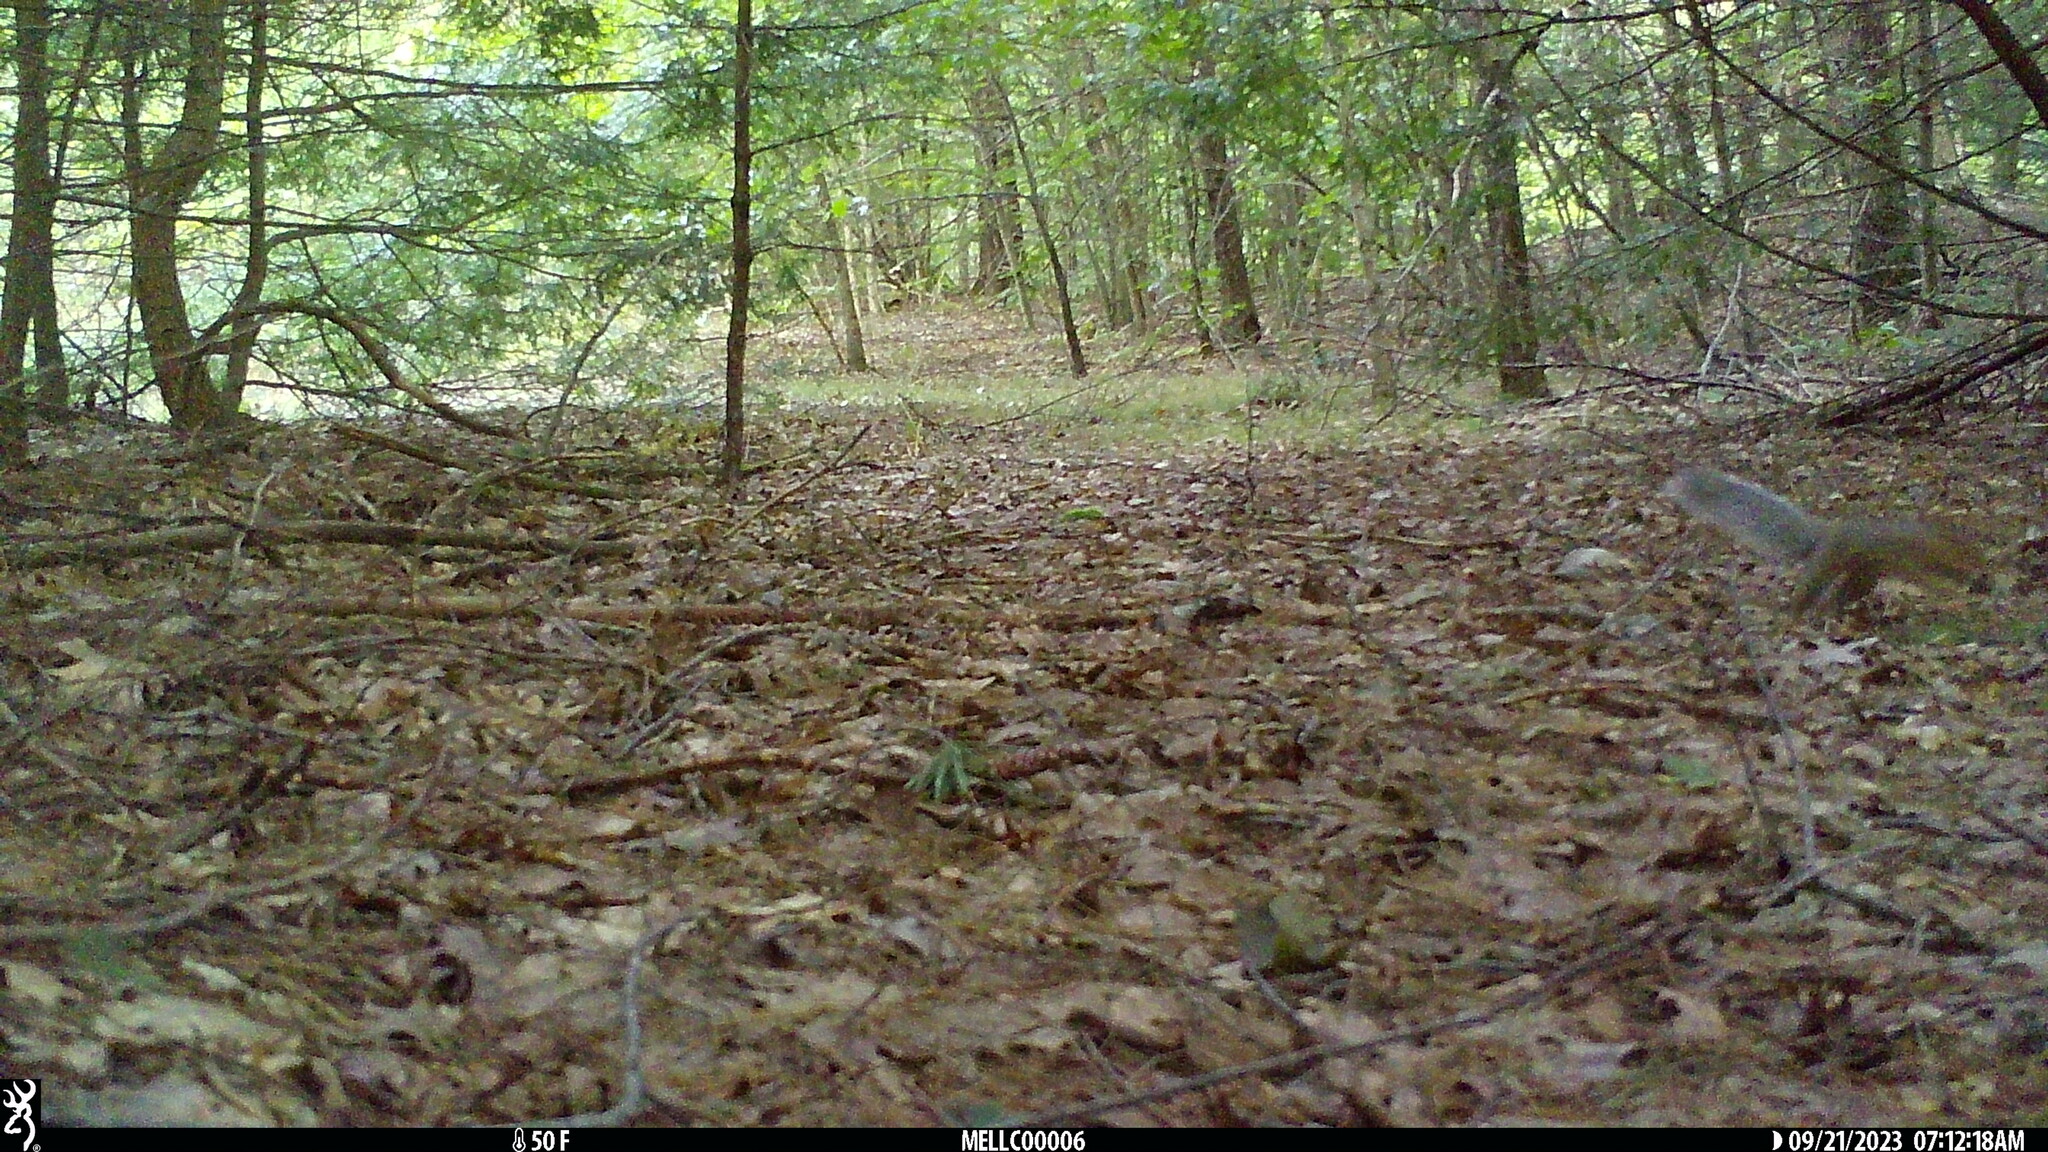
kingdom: Animalia
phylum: Chordata
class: Mammalia
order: Rodentia
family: Sciuridae
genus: Sciurus
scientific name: Sciurus carolinensis
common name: Eastern gray squirrel
